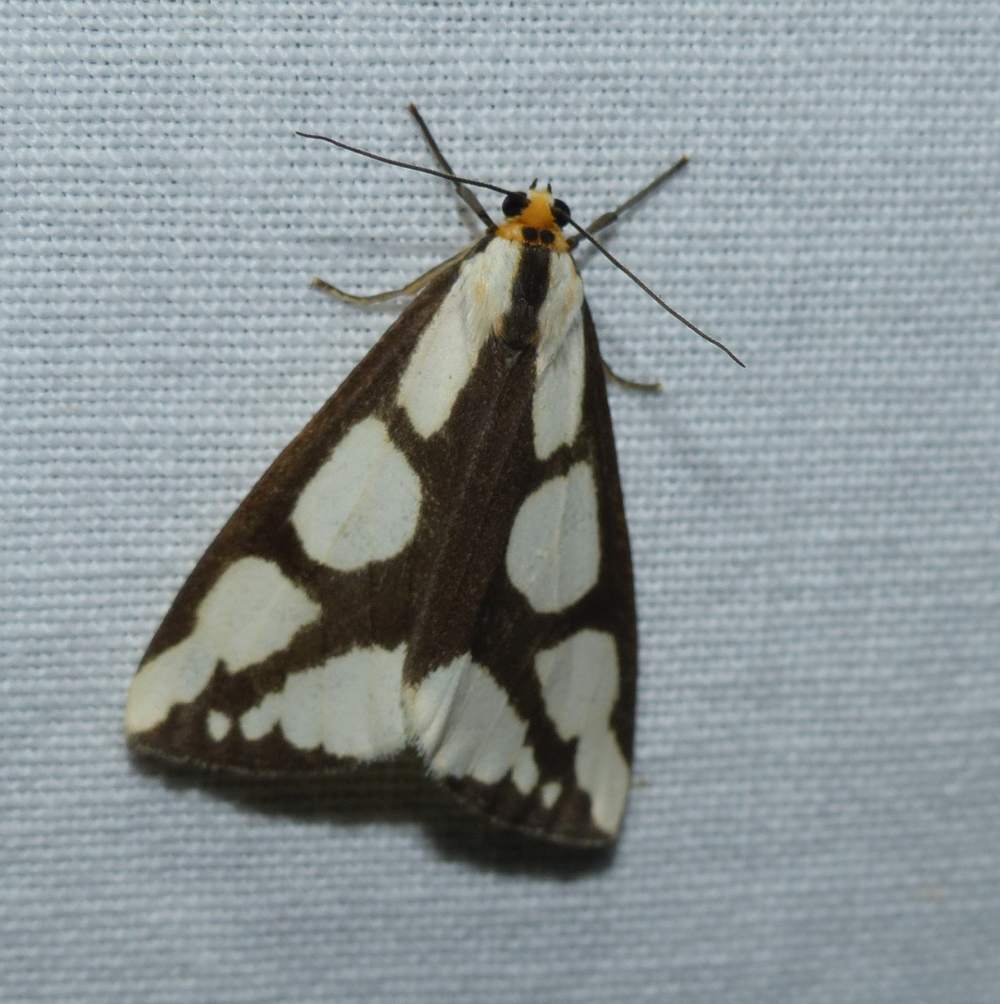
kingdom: Animalia
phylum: Arthropoda
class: Insecta
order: Lepidoptera
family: Erebidae
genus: Haploa
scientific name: Haploa lecontei
